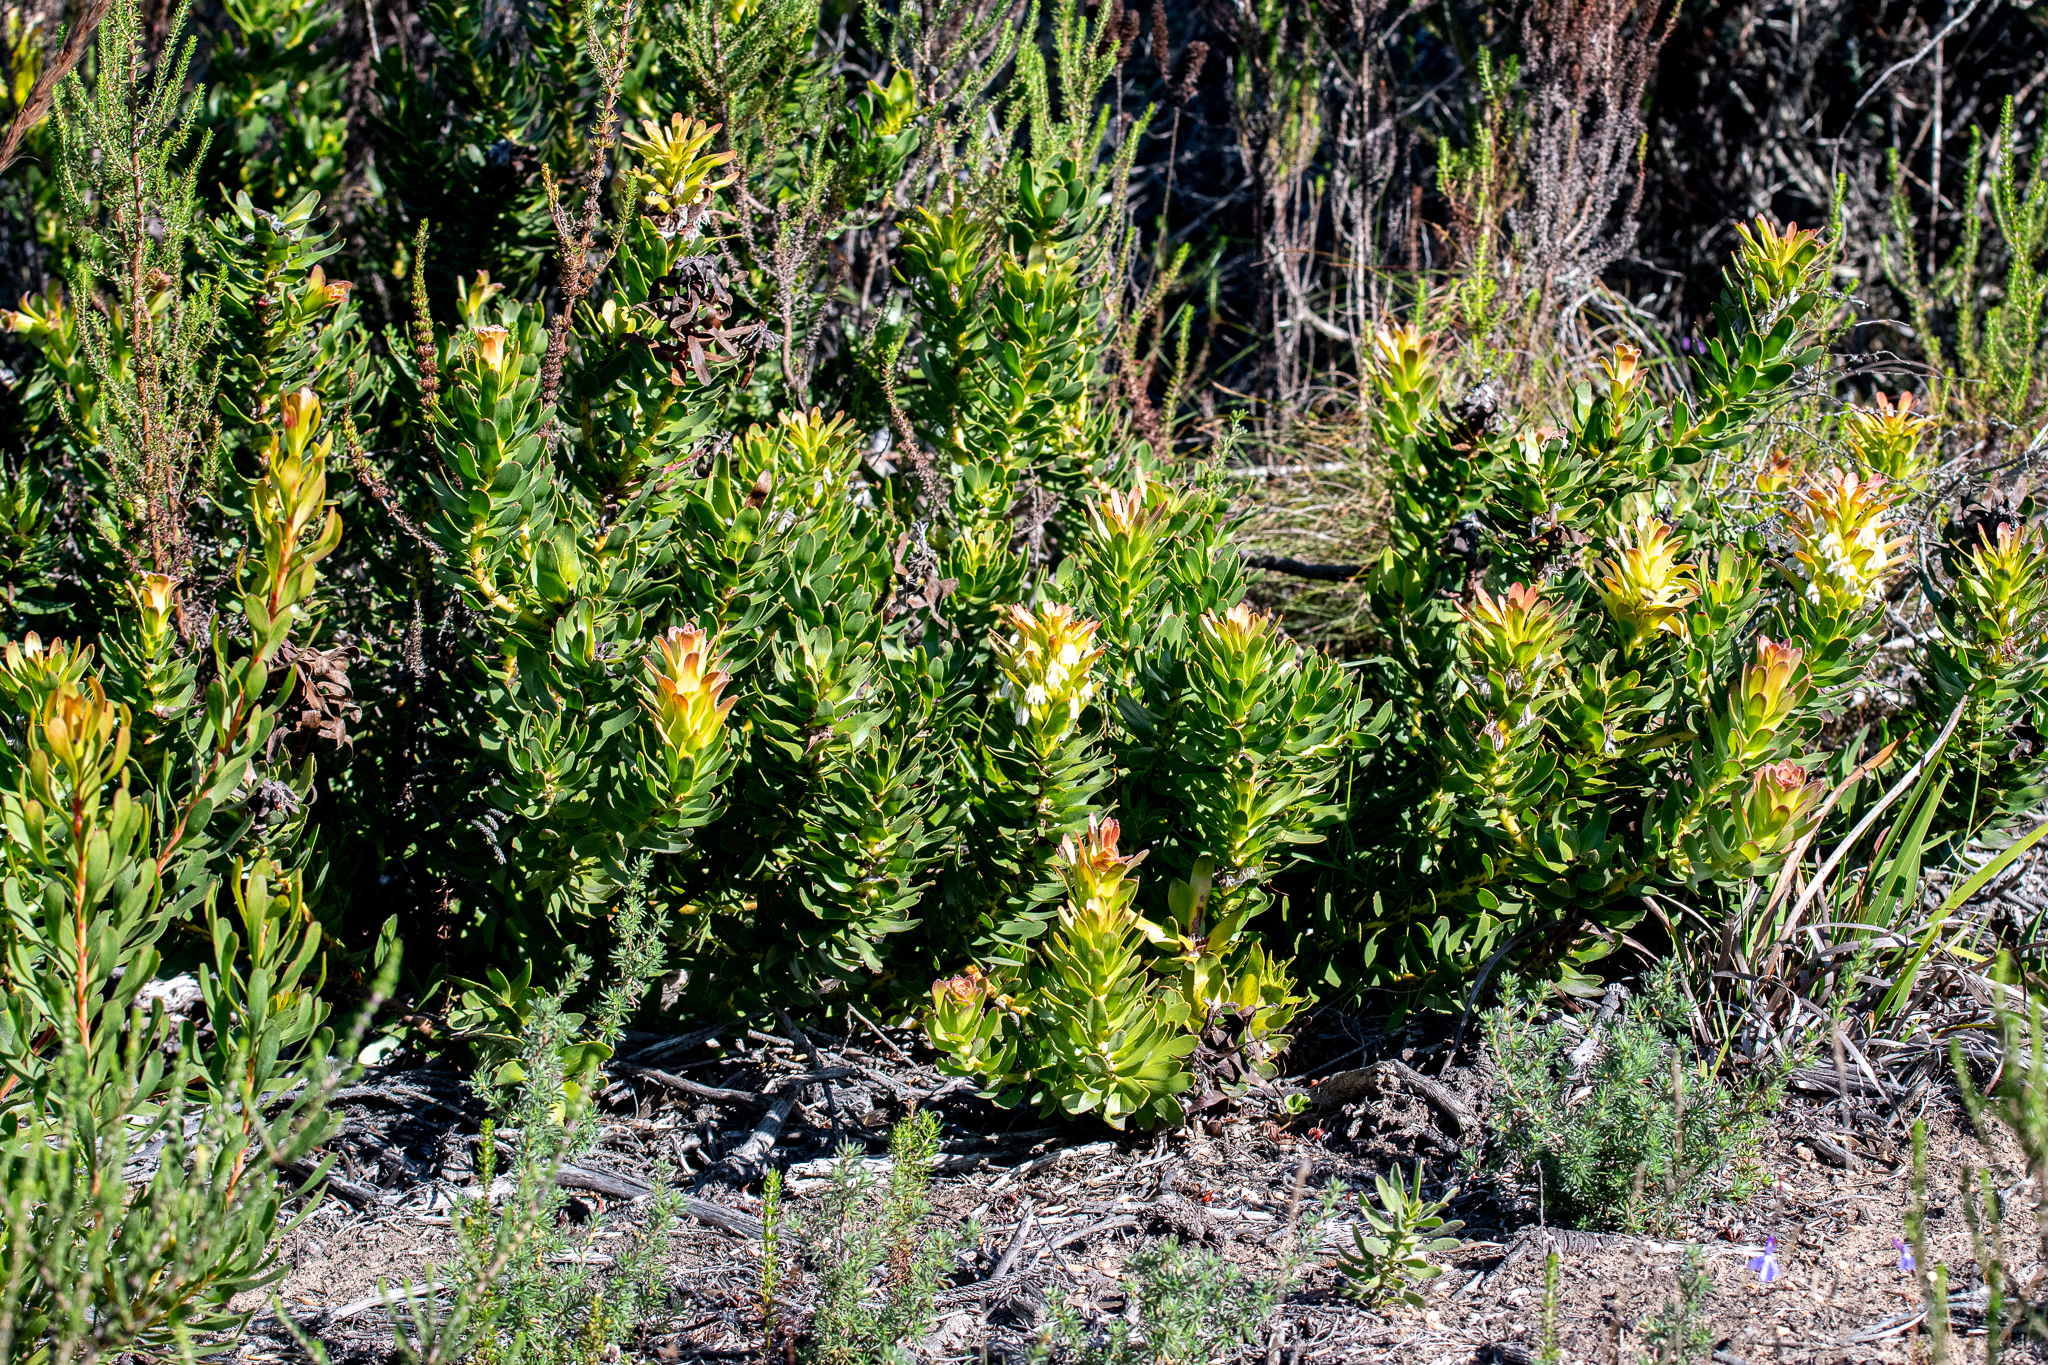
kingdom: Plantae
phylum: Tracheophyta
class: Magnoliopsida
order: Proteales
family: Proteaceae
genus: Mimetes
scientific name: Mimetes cucullatus
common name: Common pagoda
